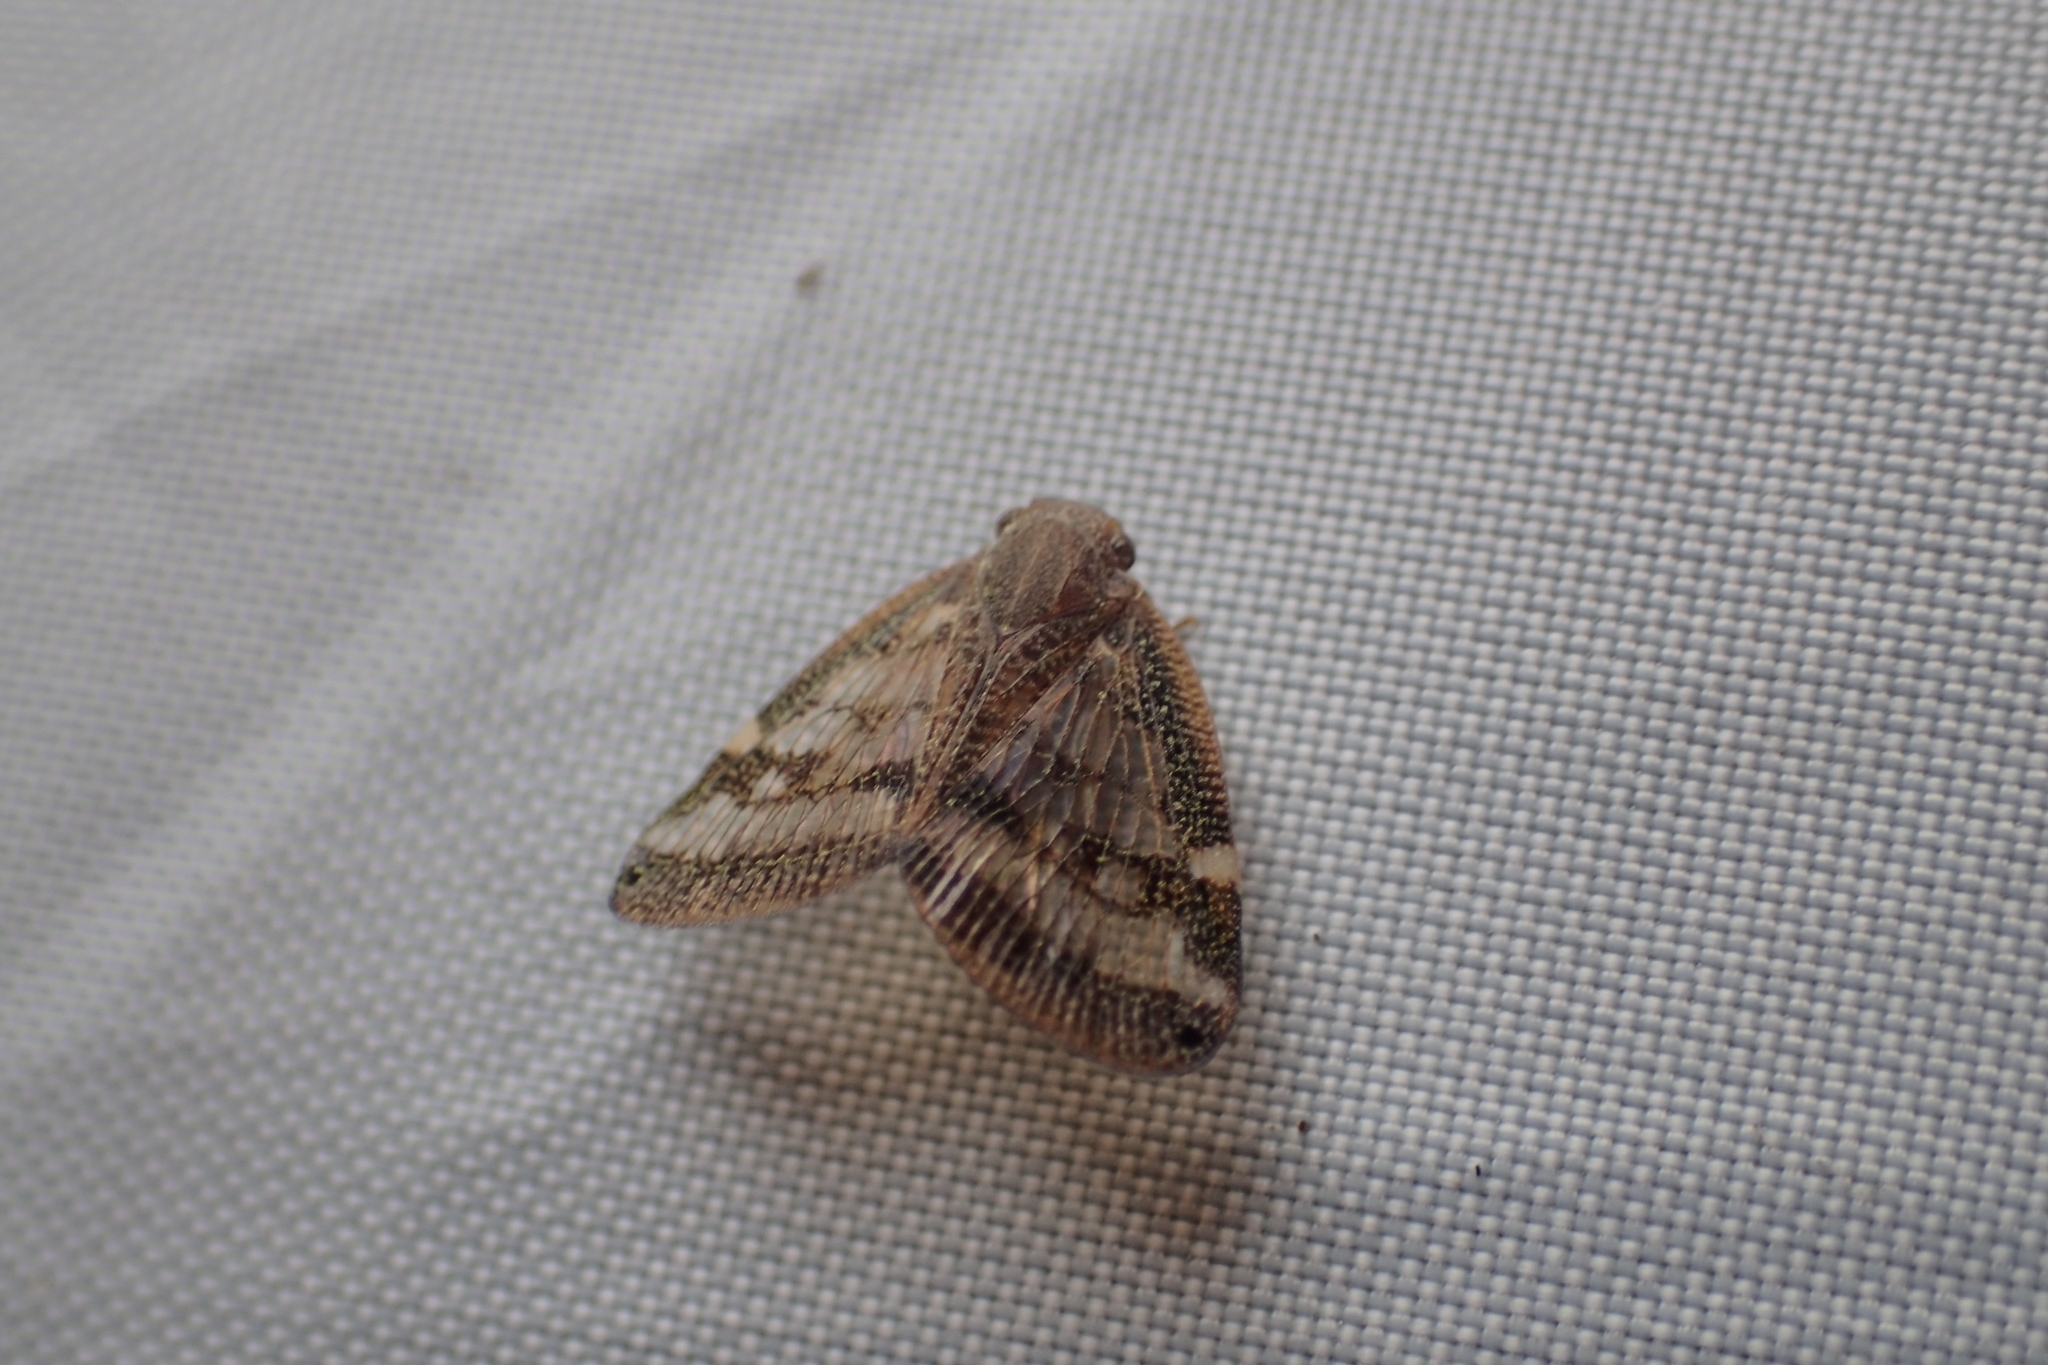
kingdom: Animalia
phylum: Arthropoda
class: Insecta
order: Hemiptera
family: Ricaniidae
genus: Scolypopa
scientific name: Scolypopa australis
